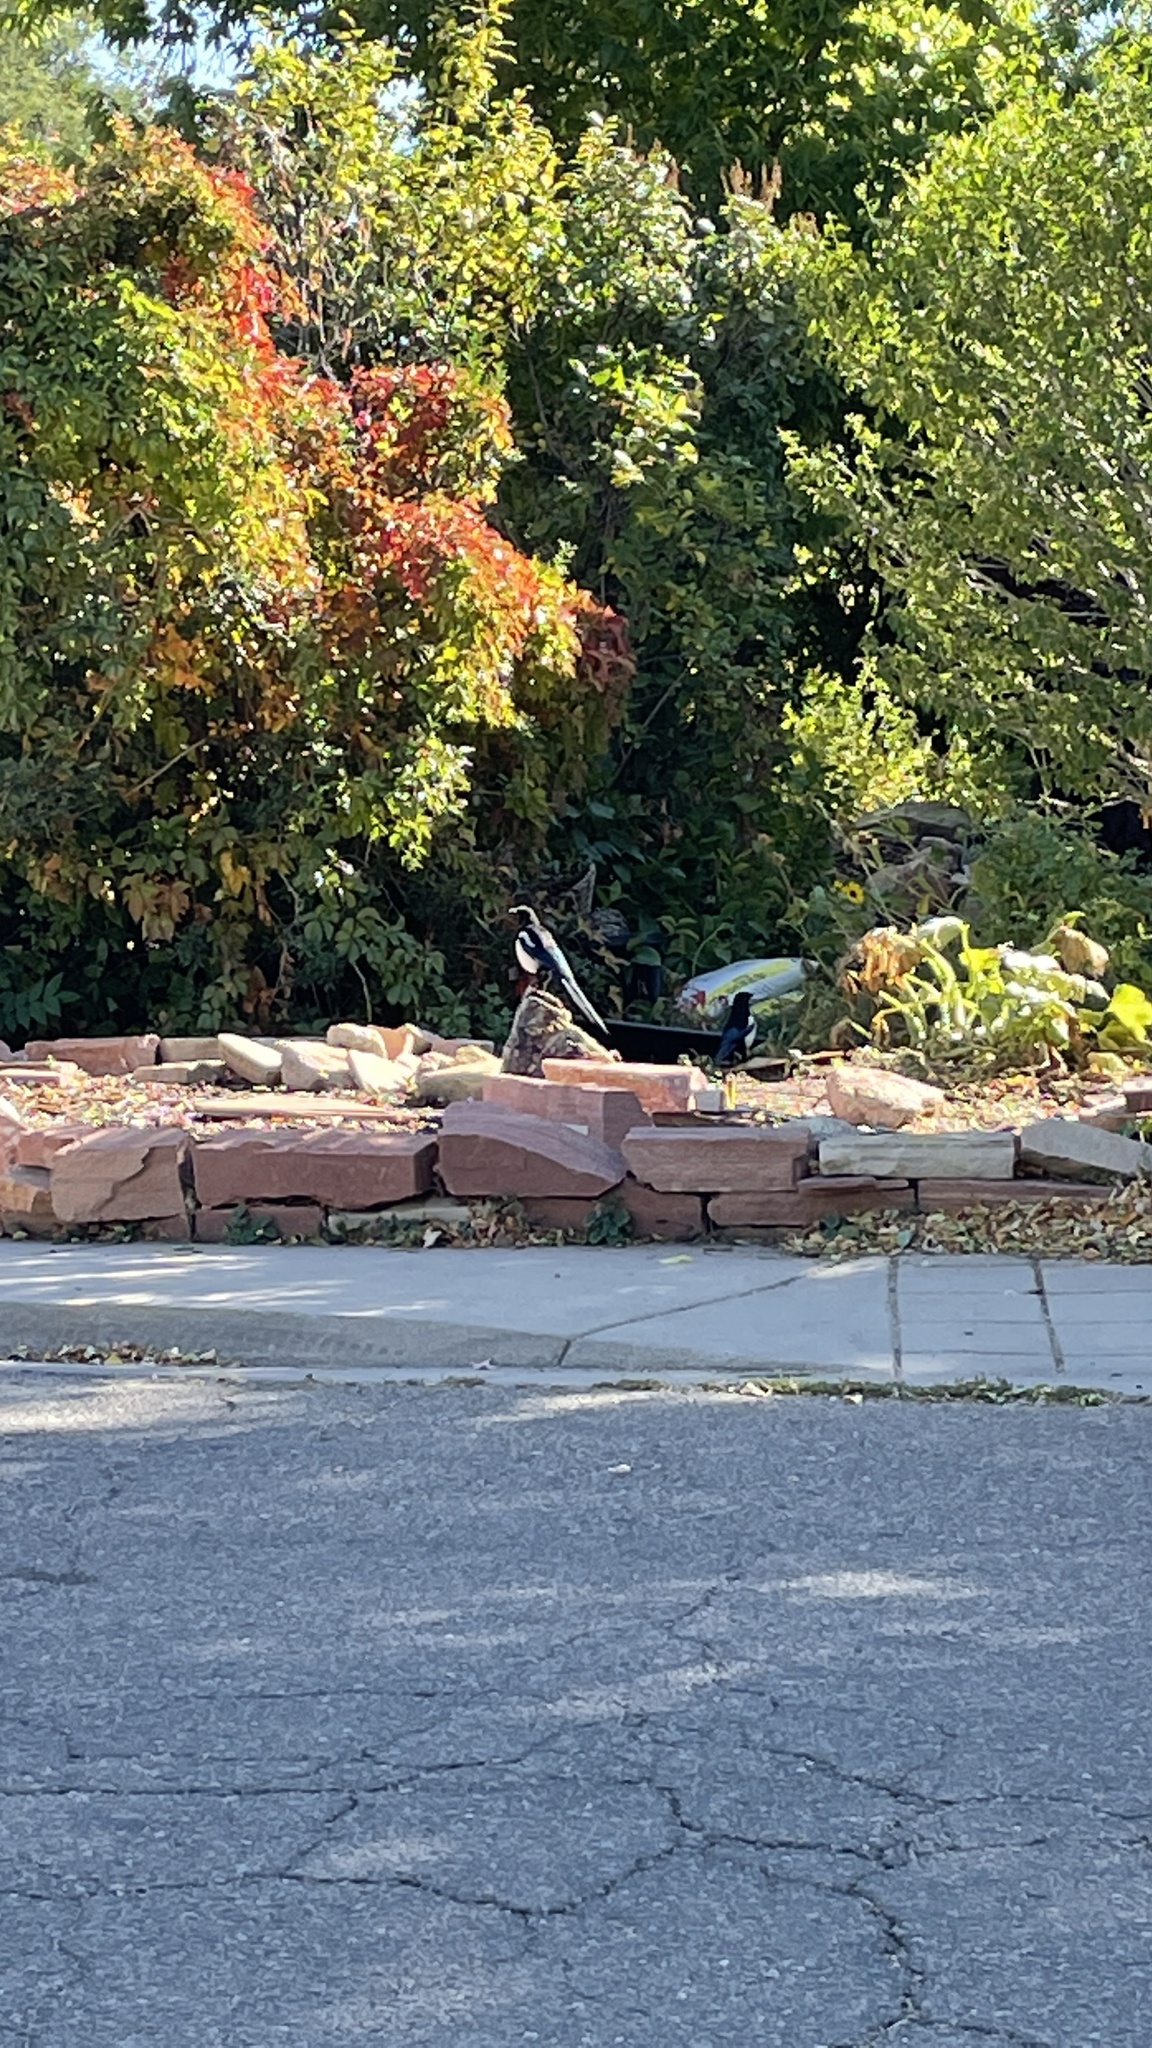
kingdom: Animalia
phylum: Chordata
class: Aves
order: Passeriformes
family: Corvidae
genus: Pica
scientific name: Pica hudsonia
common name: Black-billed magpie
